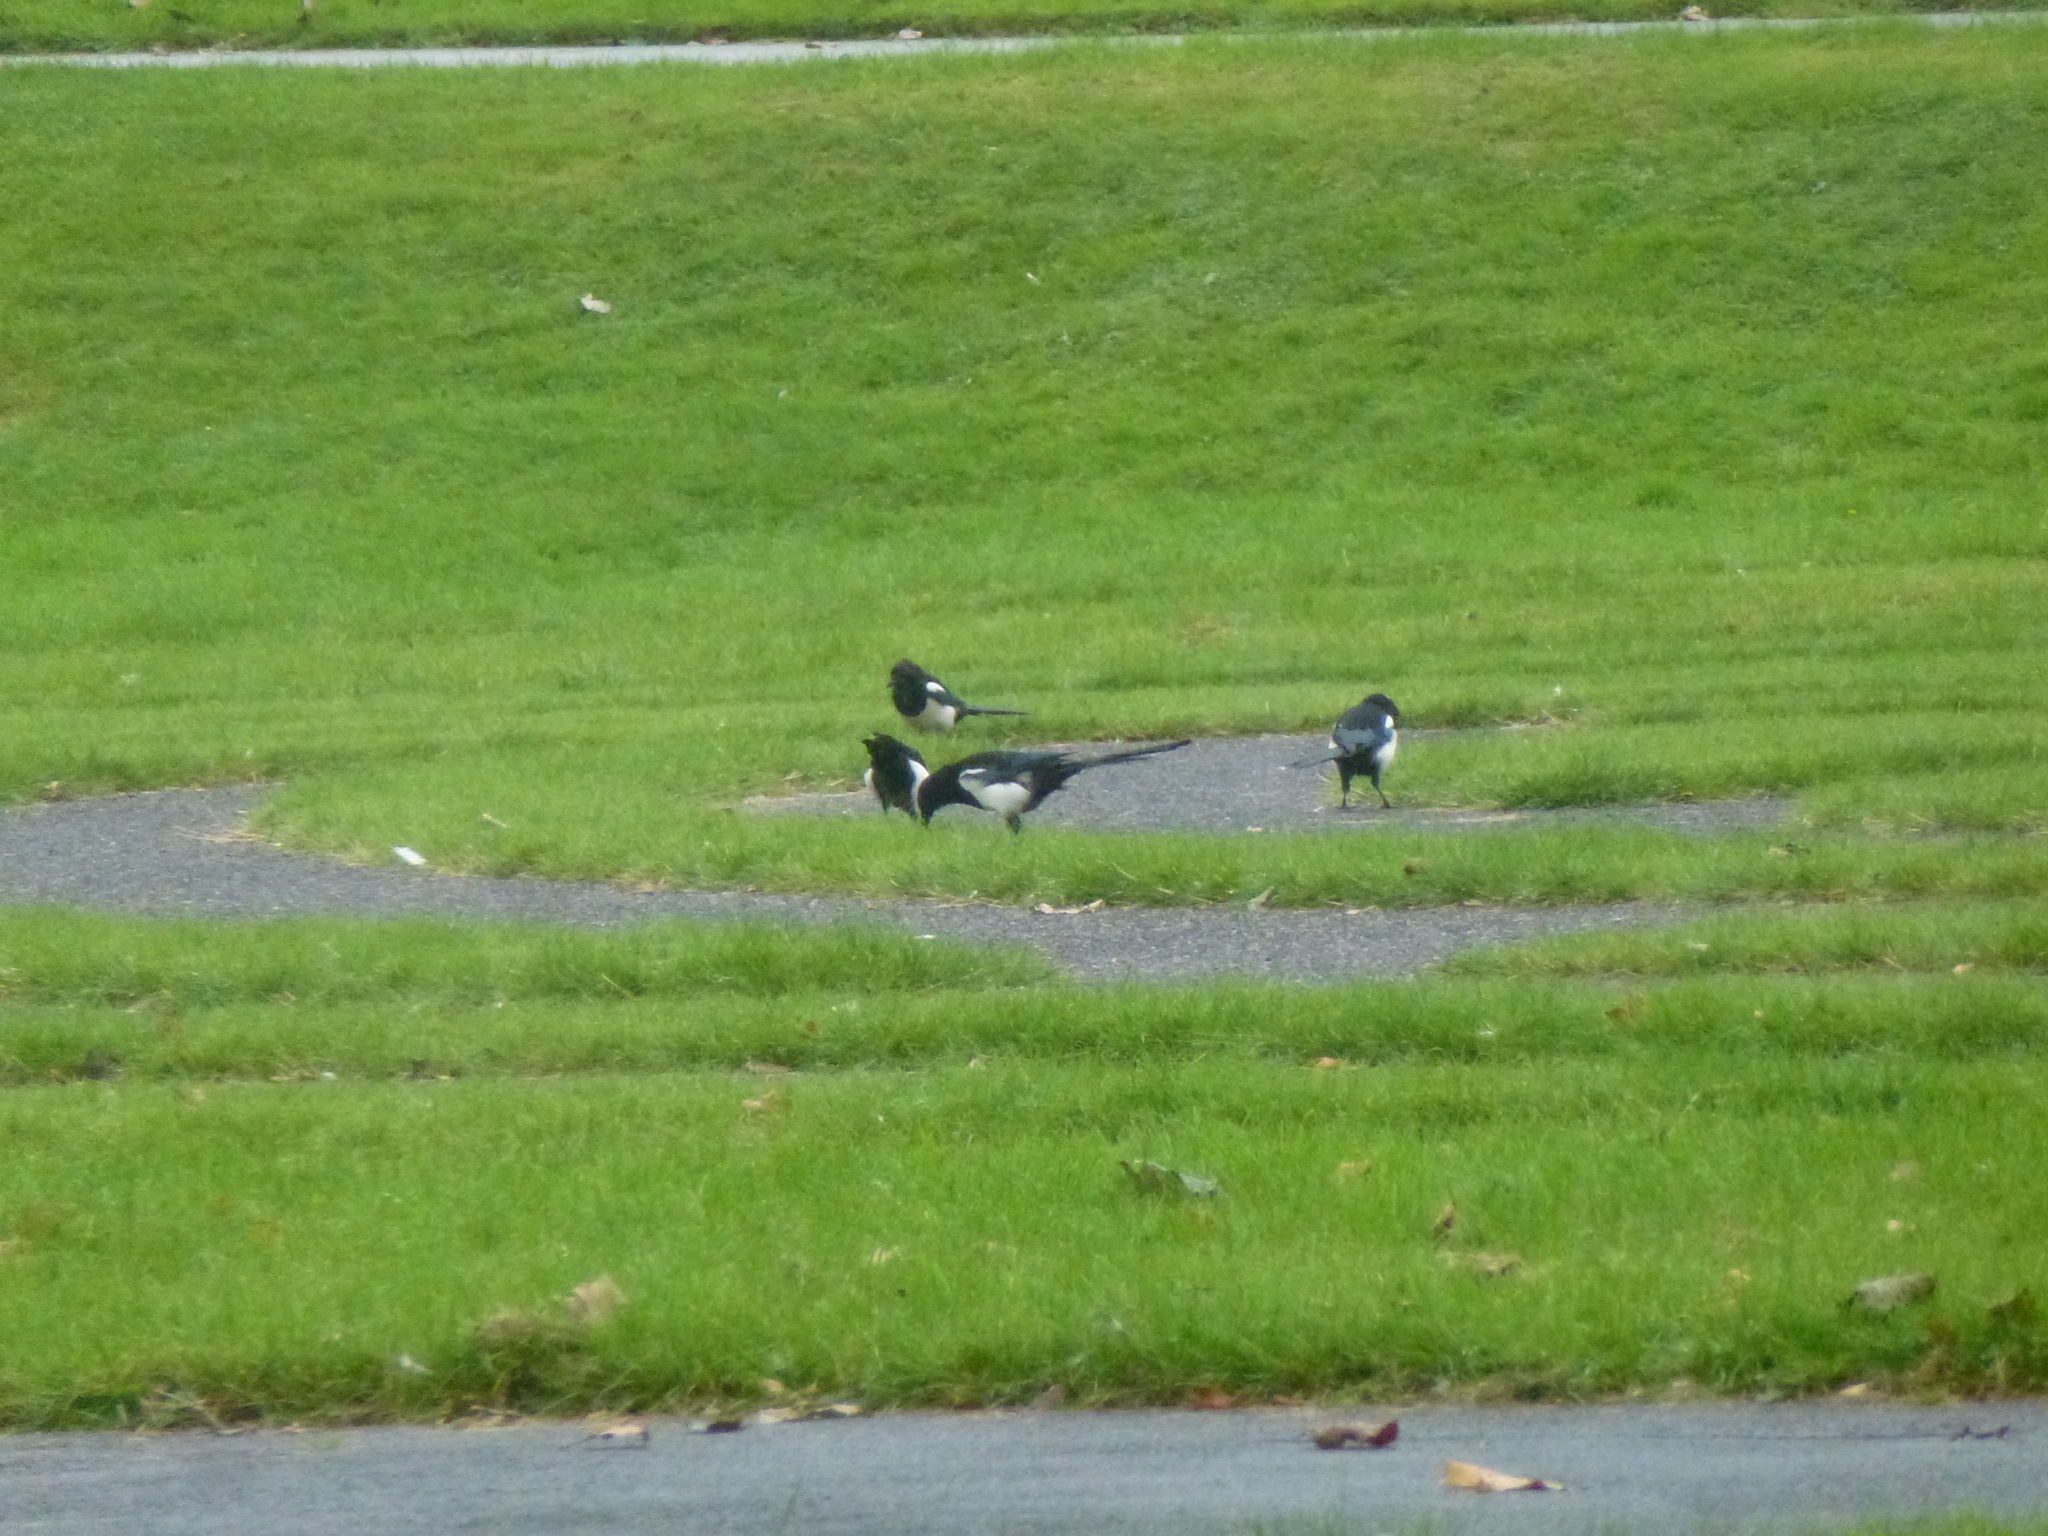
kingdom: Animalia
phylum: Chordata
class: Aves
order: Passeriformes
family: Corvidae
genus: Pica
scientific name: Pica pica
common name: Eurasian magpie
